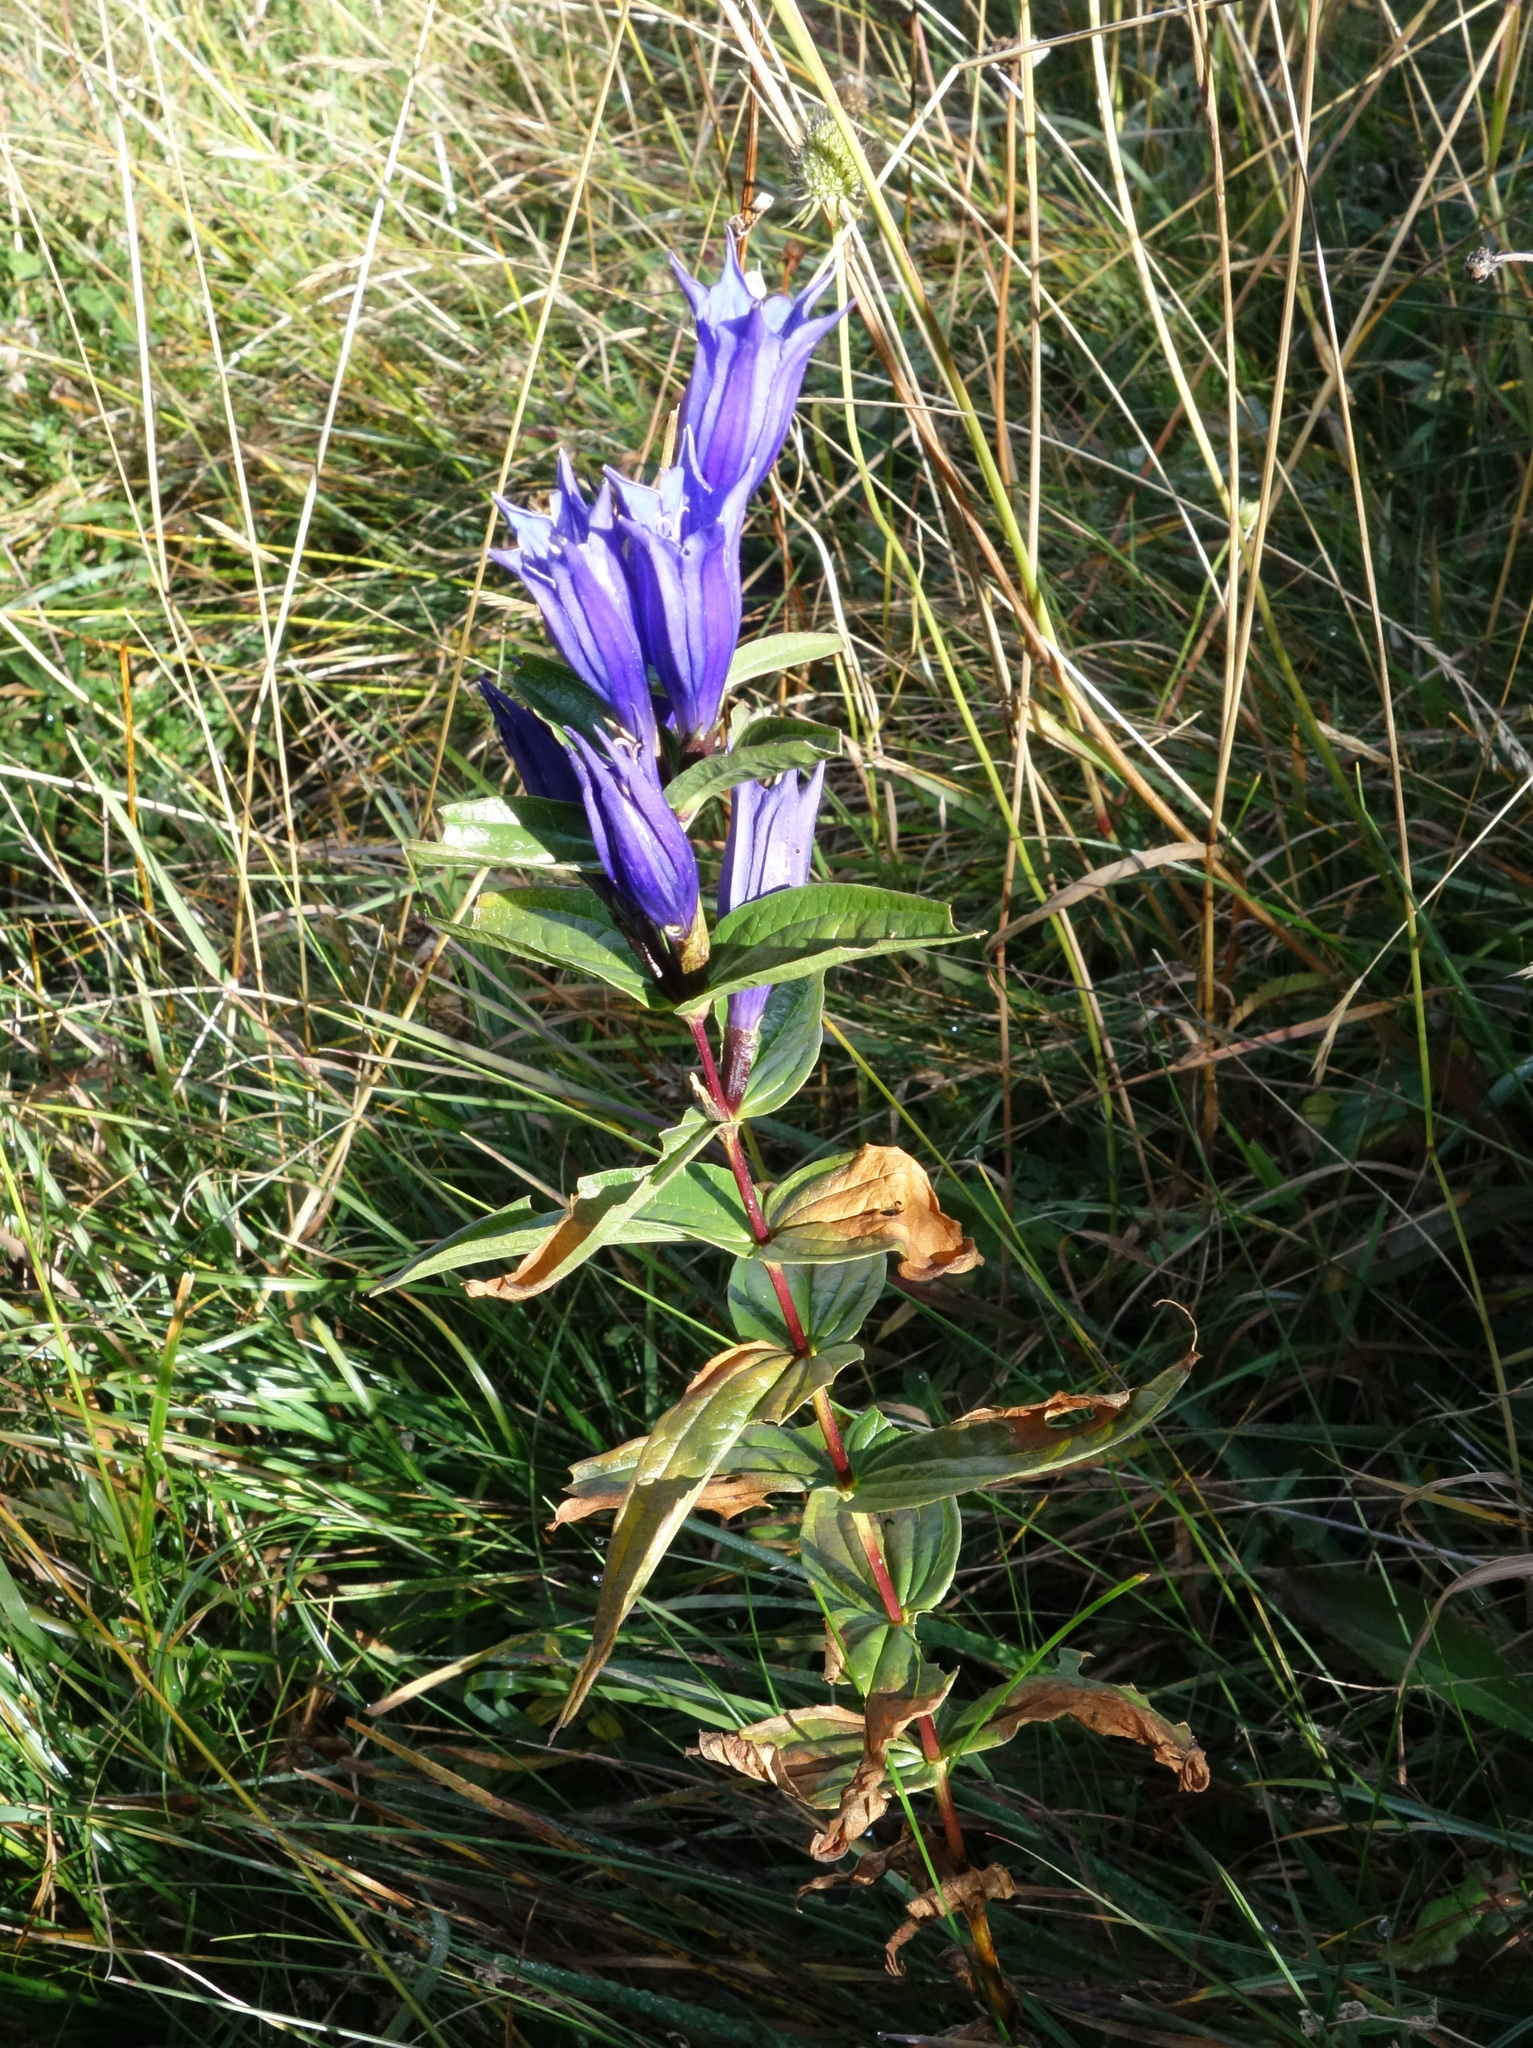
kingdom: Plantae
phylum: Tracheophyta
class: Magnoliopsida
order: Gentianales
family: Gentianaceae
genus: Gentiana
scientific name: Gentiana asclepiadea
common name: Willow gentian
